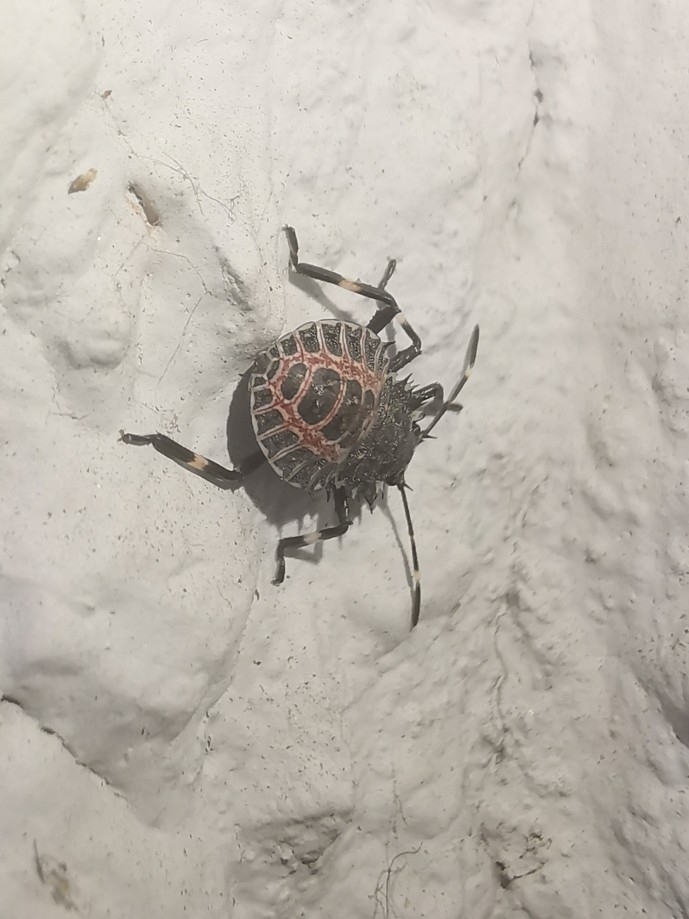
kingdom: Animalia
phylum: Arthropoda
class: Insecta
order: Hemiptera
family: Pentatomidae
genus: Halyomorpha
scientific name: Halyomorpha halys
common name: Brown marmorated stink bug
